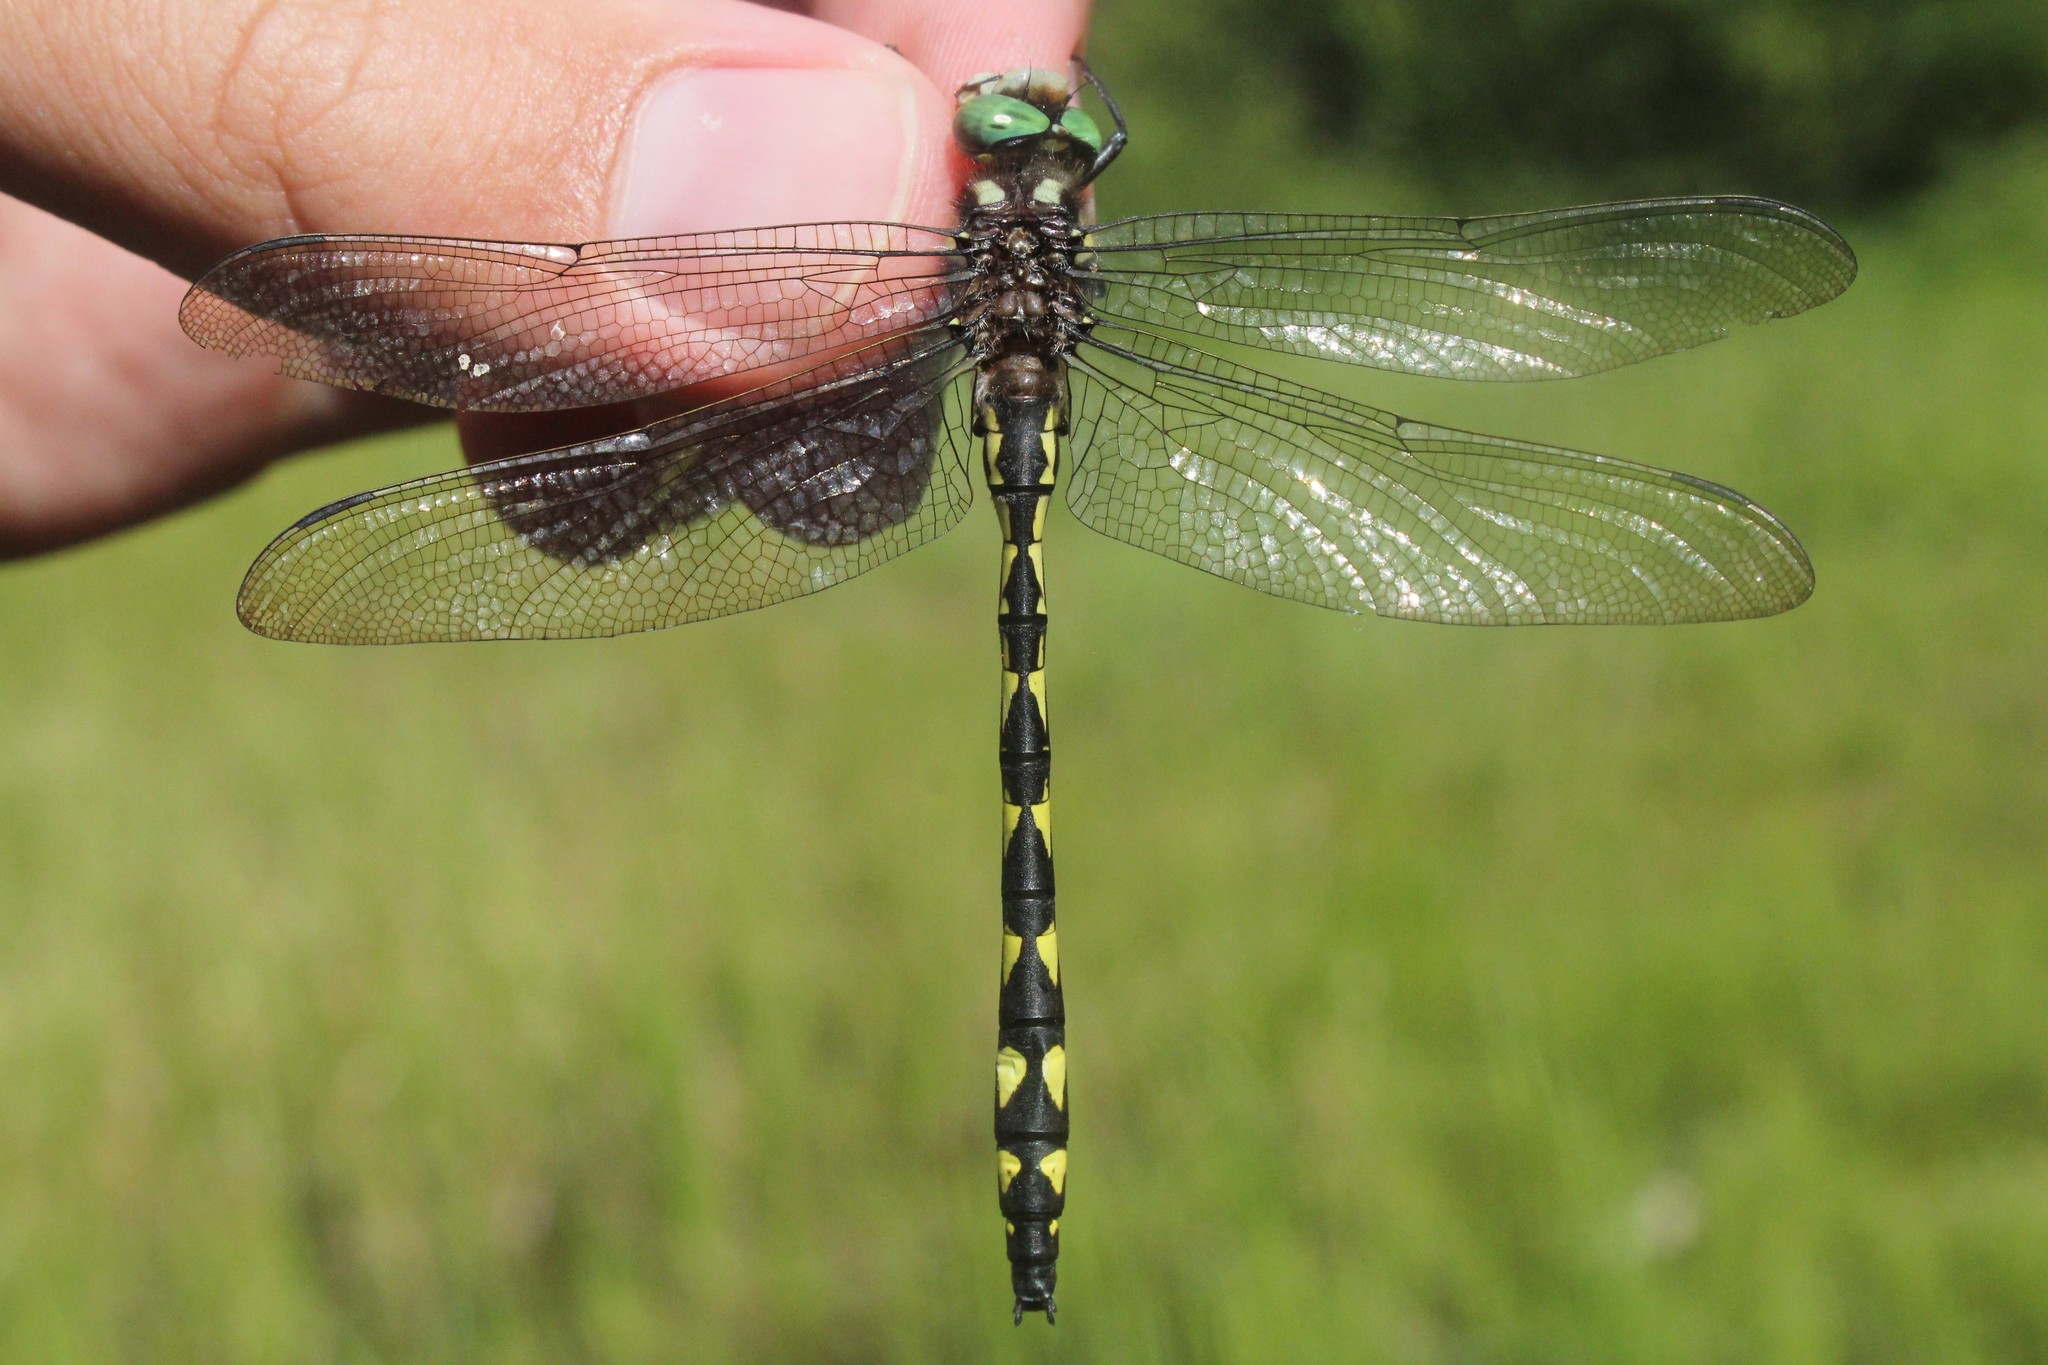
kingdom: Animalia
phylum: Arthropoda
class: Insecta
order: Odonata
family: Cordulegastridae
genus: Cordulegaster
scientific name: Cordulegaster diastatops
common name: Delta-spotted spiketail
